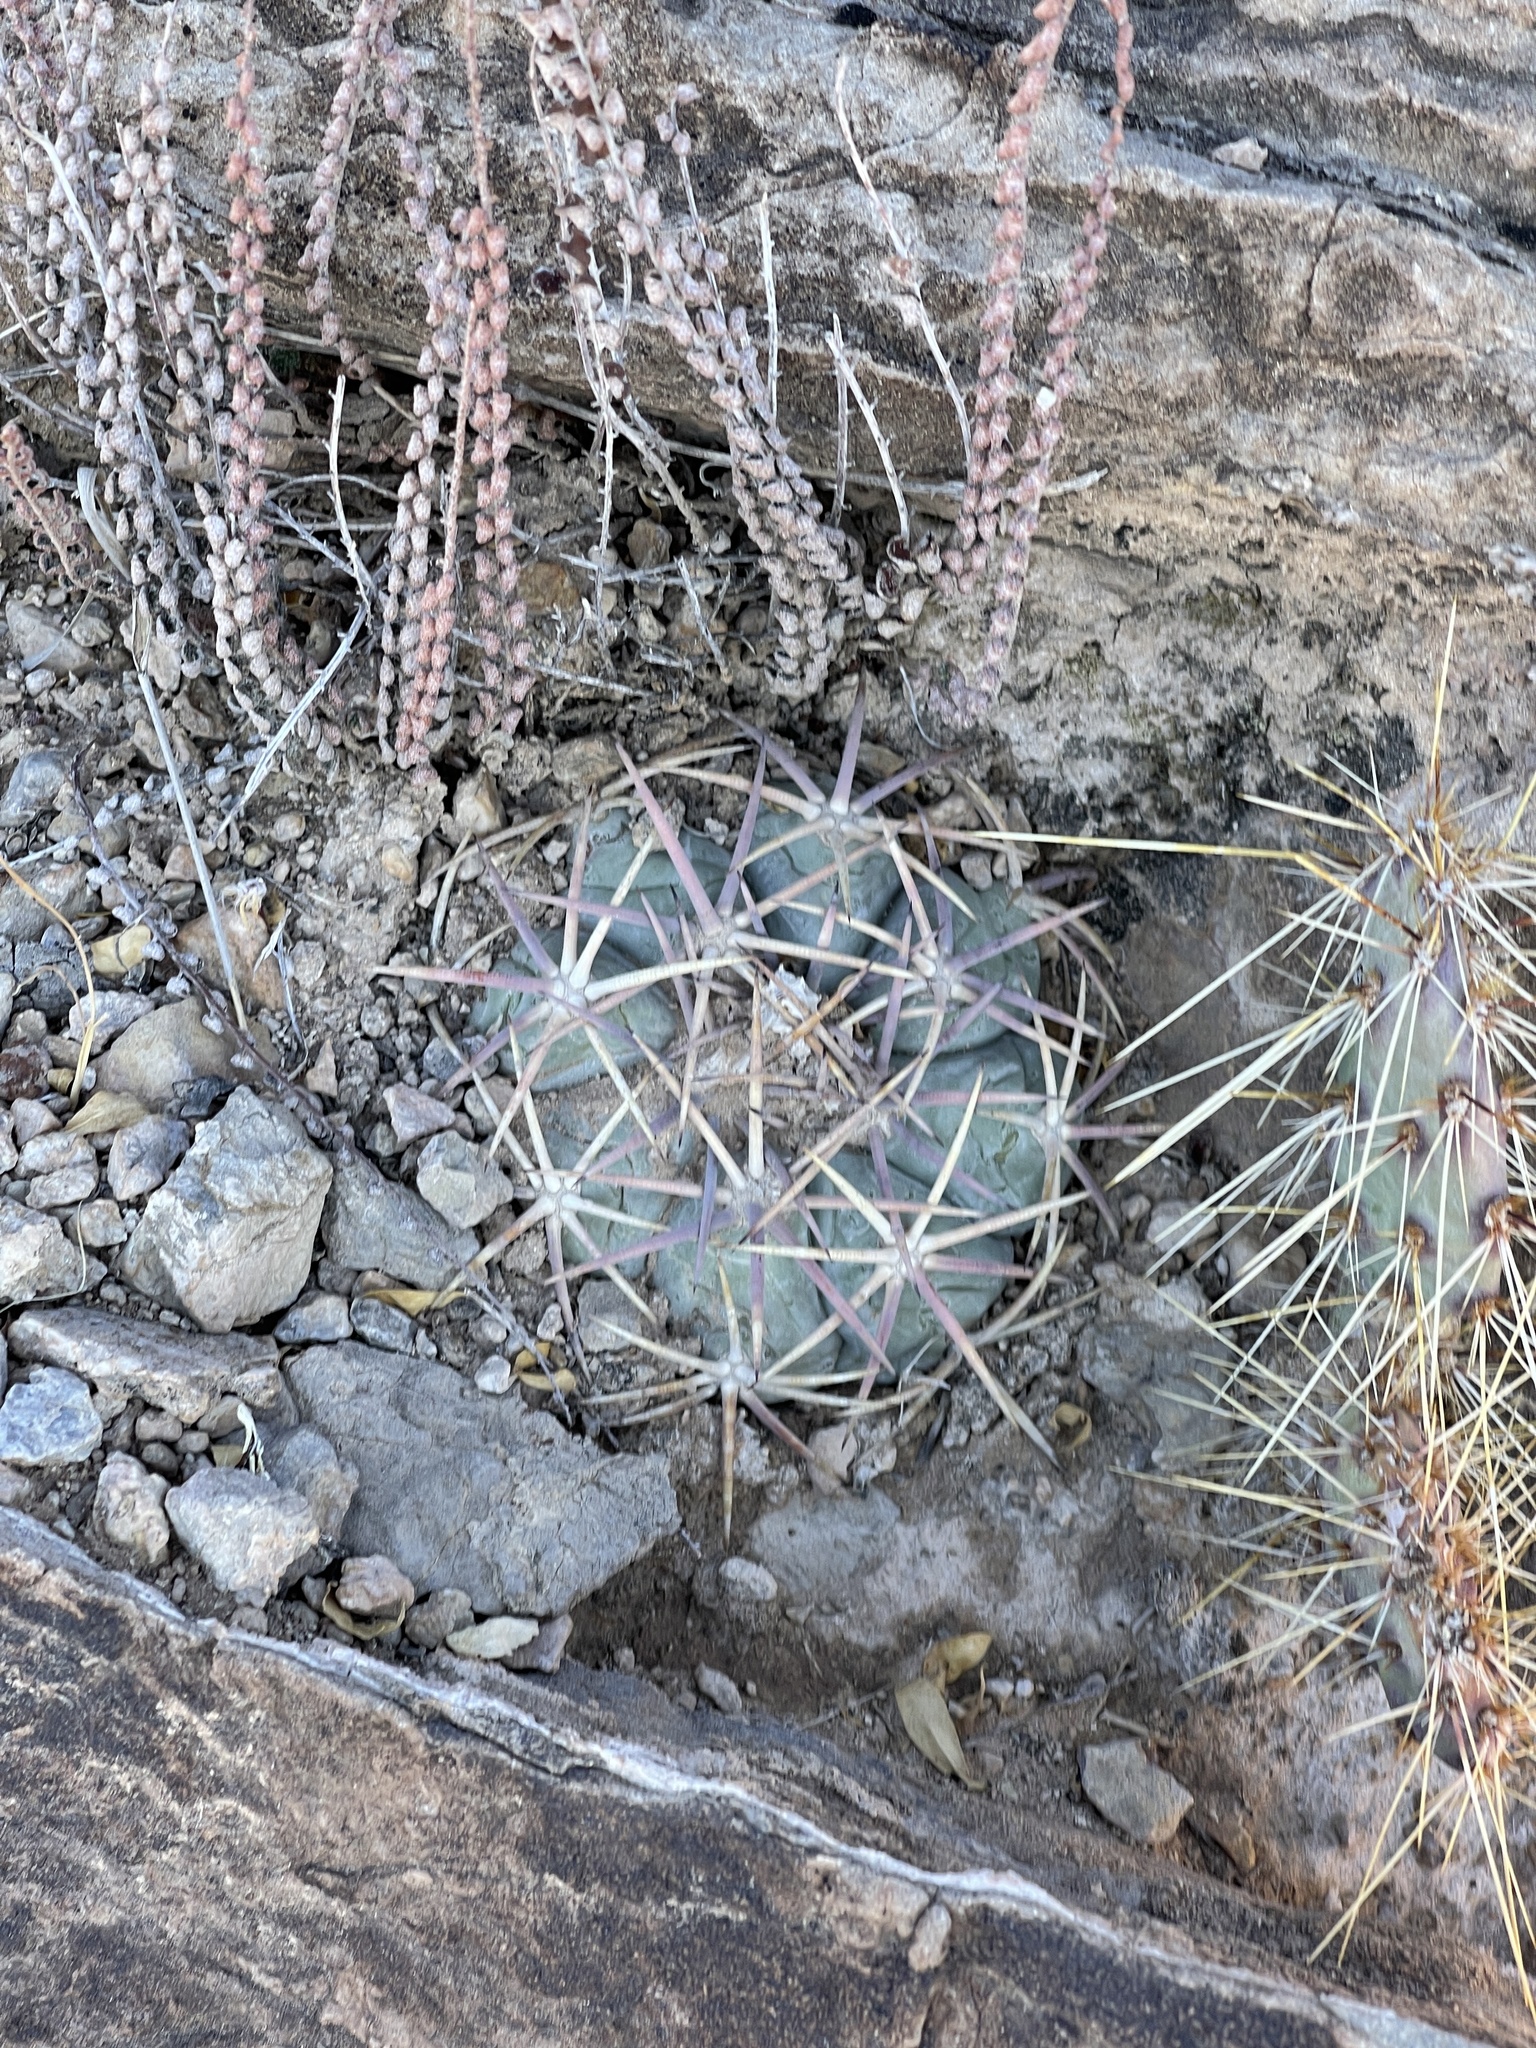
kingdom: Plantae
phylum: Tracheophyta
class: Magnoliopsida
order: Caryophyllales
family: Cactaceae
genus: Echinocactus
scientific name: Echinocactus horizonthalonius
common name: Devilshead
